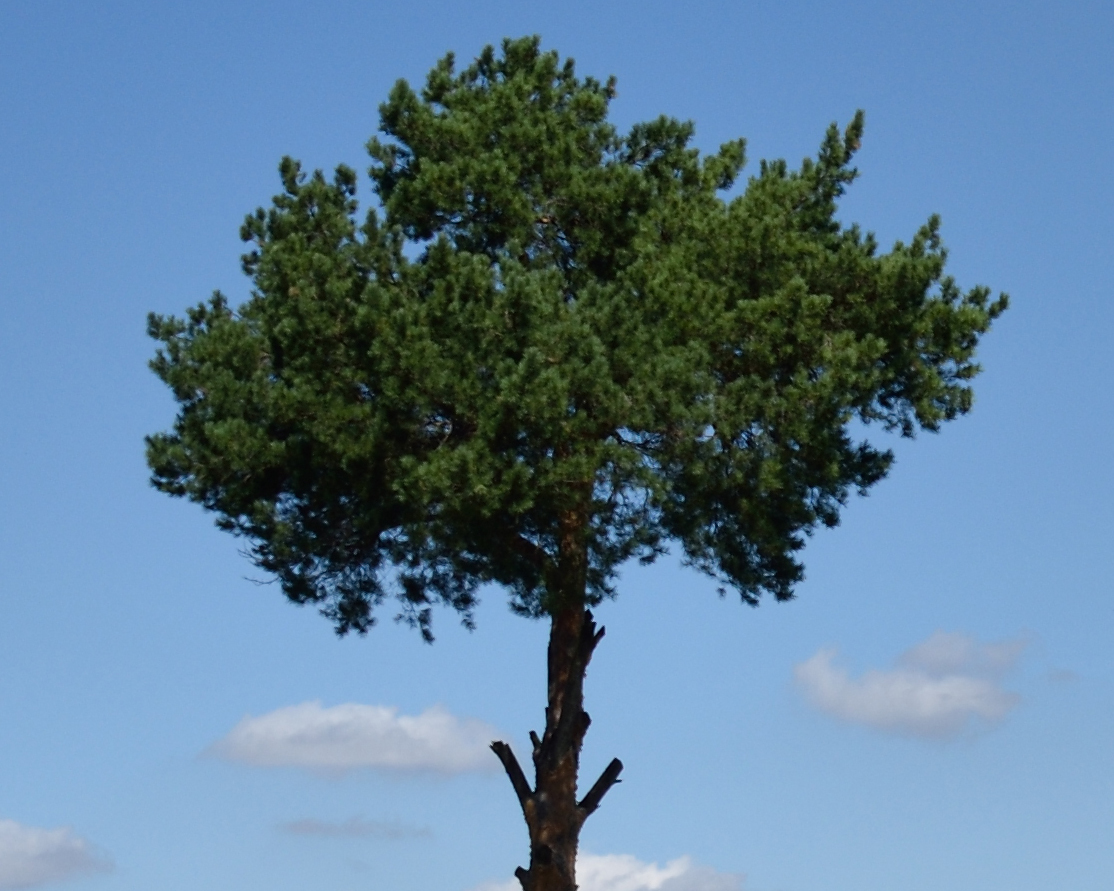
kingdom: Plantae
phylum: Tracheophyta
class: Pinopsida
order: Pinales
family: Pinaceae
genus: Pinus
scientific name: Pinus sylvestris
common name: Scots pine
